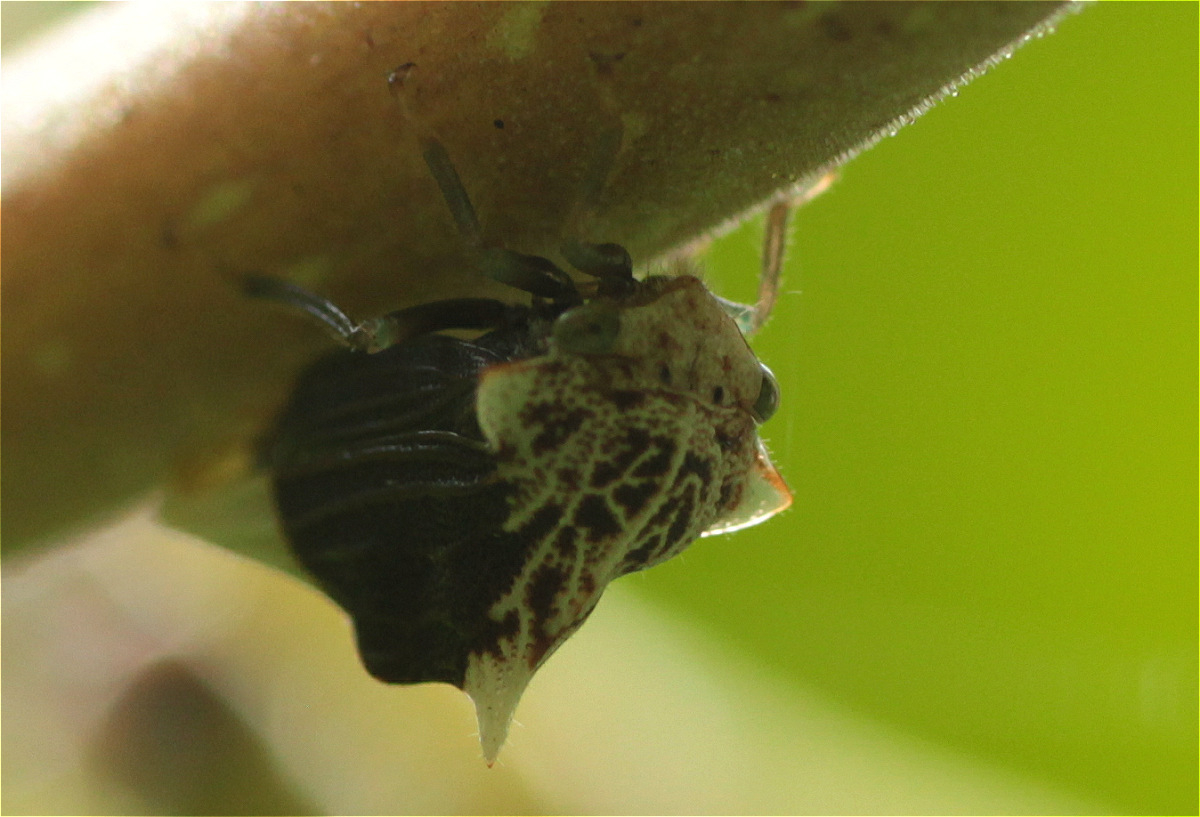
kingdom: Animalia
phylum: Arthropoda
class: Insecta
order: Hemiptera
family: Membracidae
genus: Ennya
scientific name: Ennya chrysura
